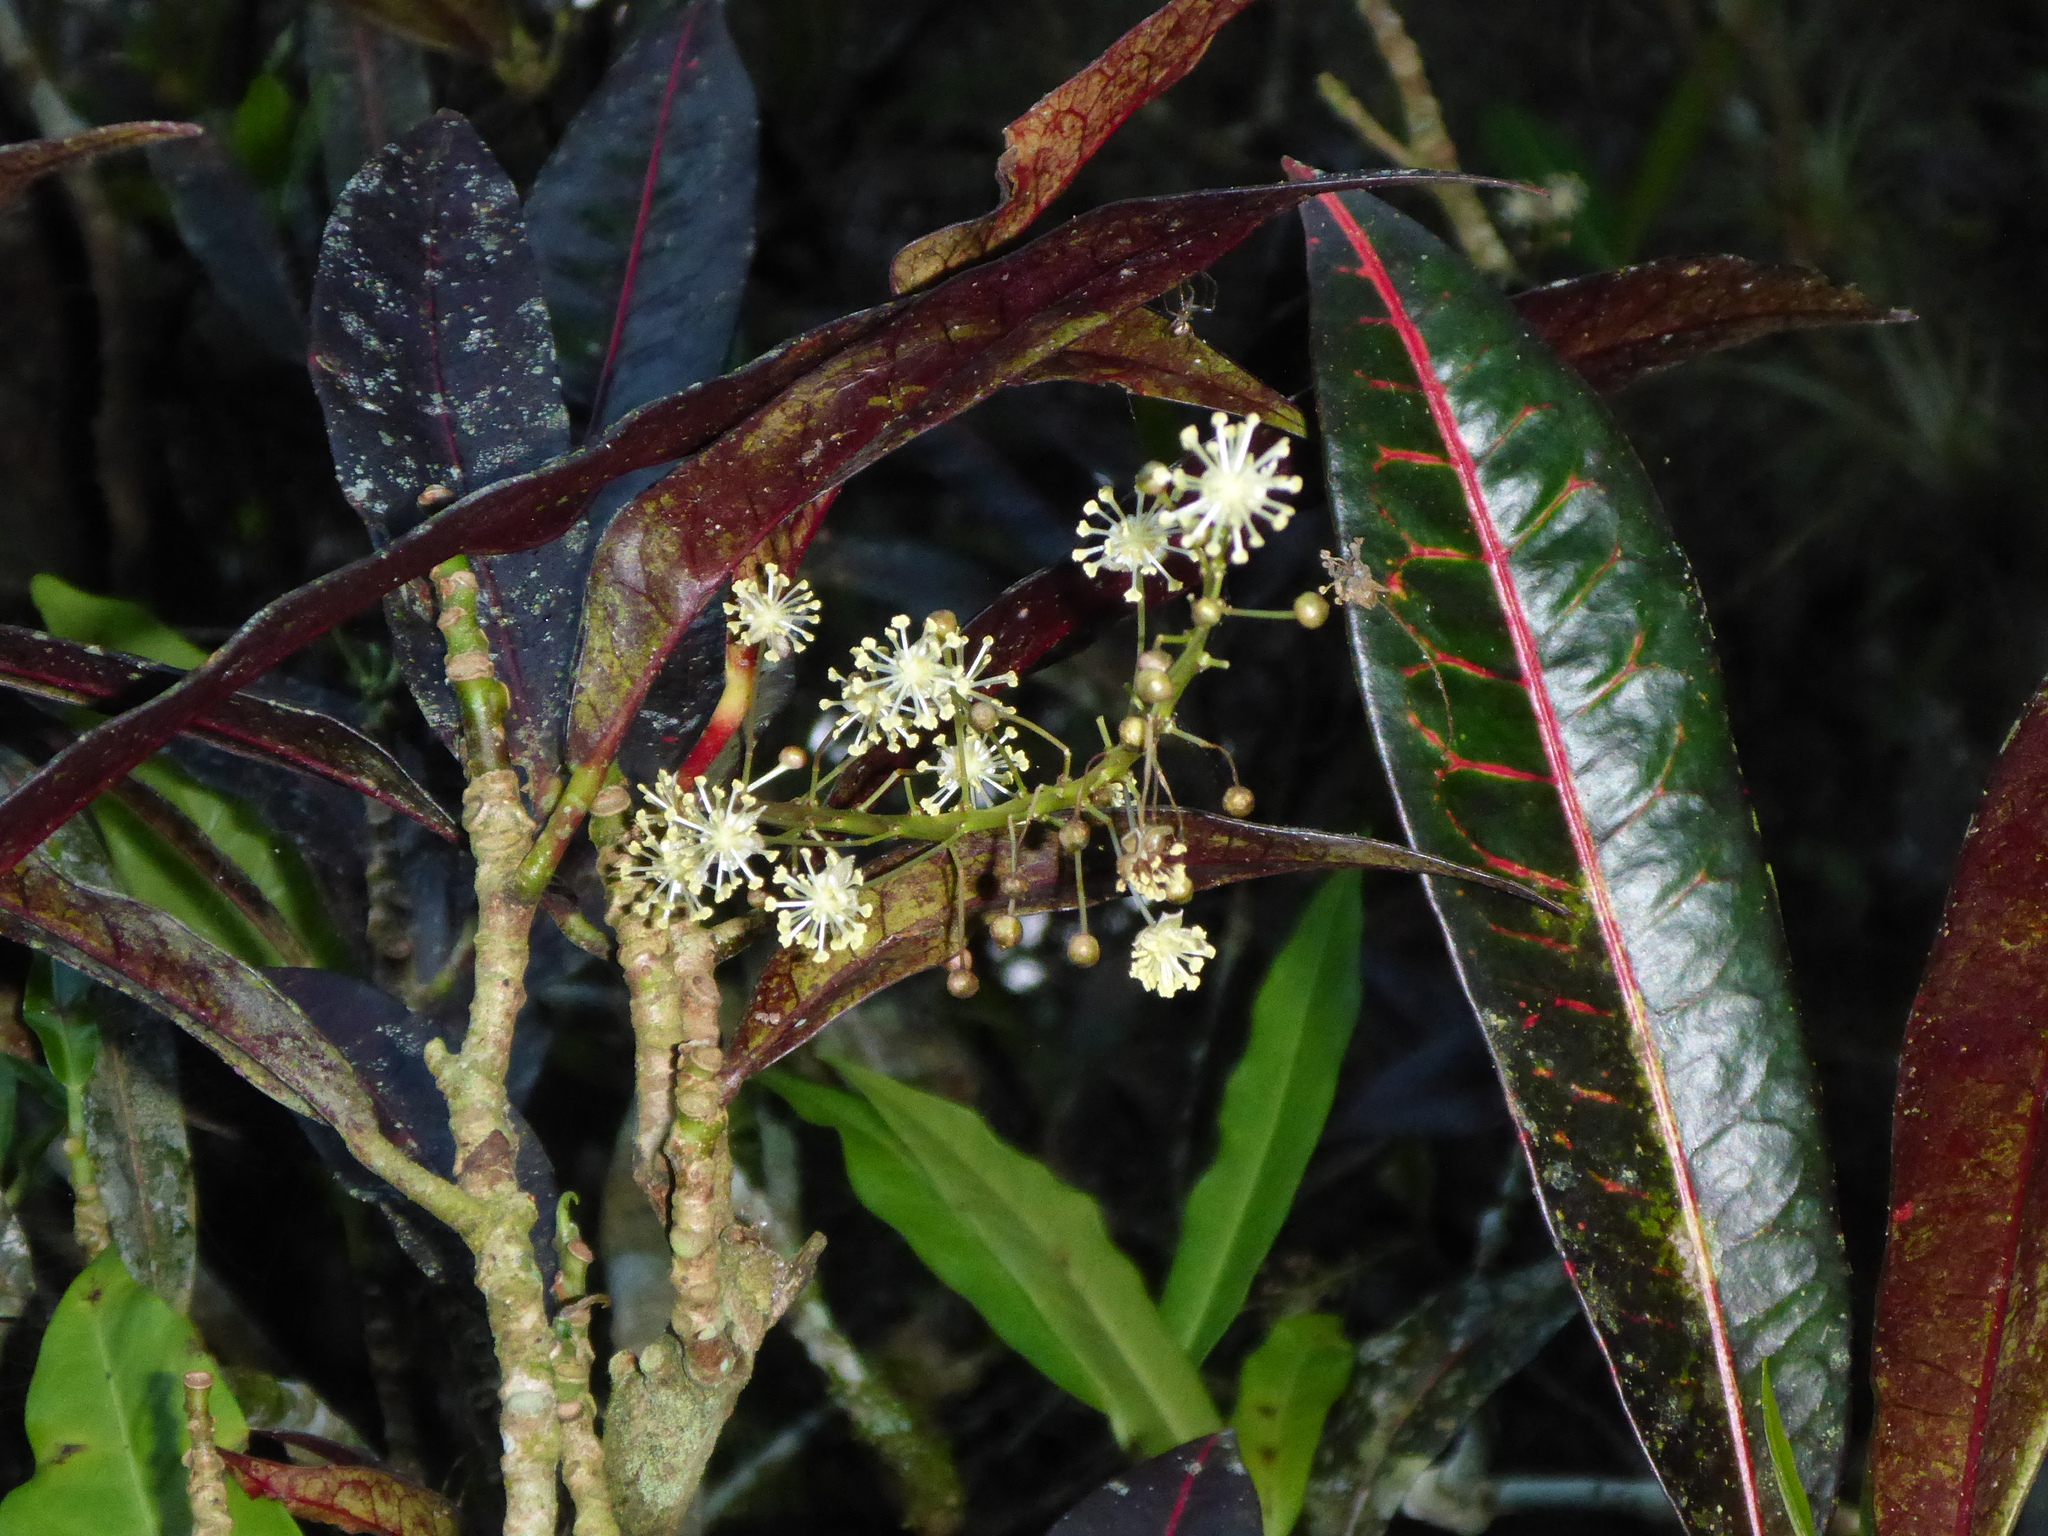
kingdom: Plantae
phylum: Tracheophyta
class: Magnoliopsida
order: Malpighiales
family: Euphorbiaceae
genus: Codiaeum
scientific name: Codiaeum variegatum
